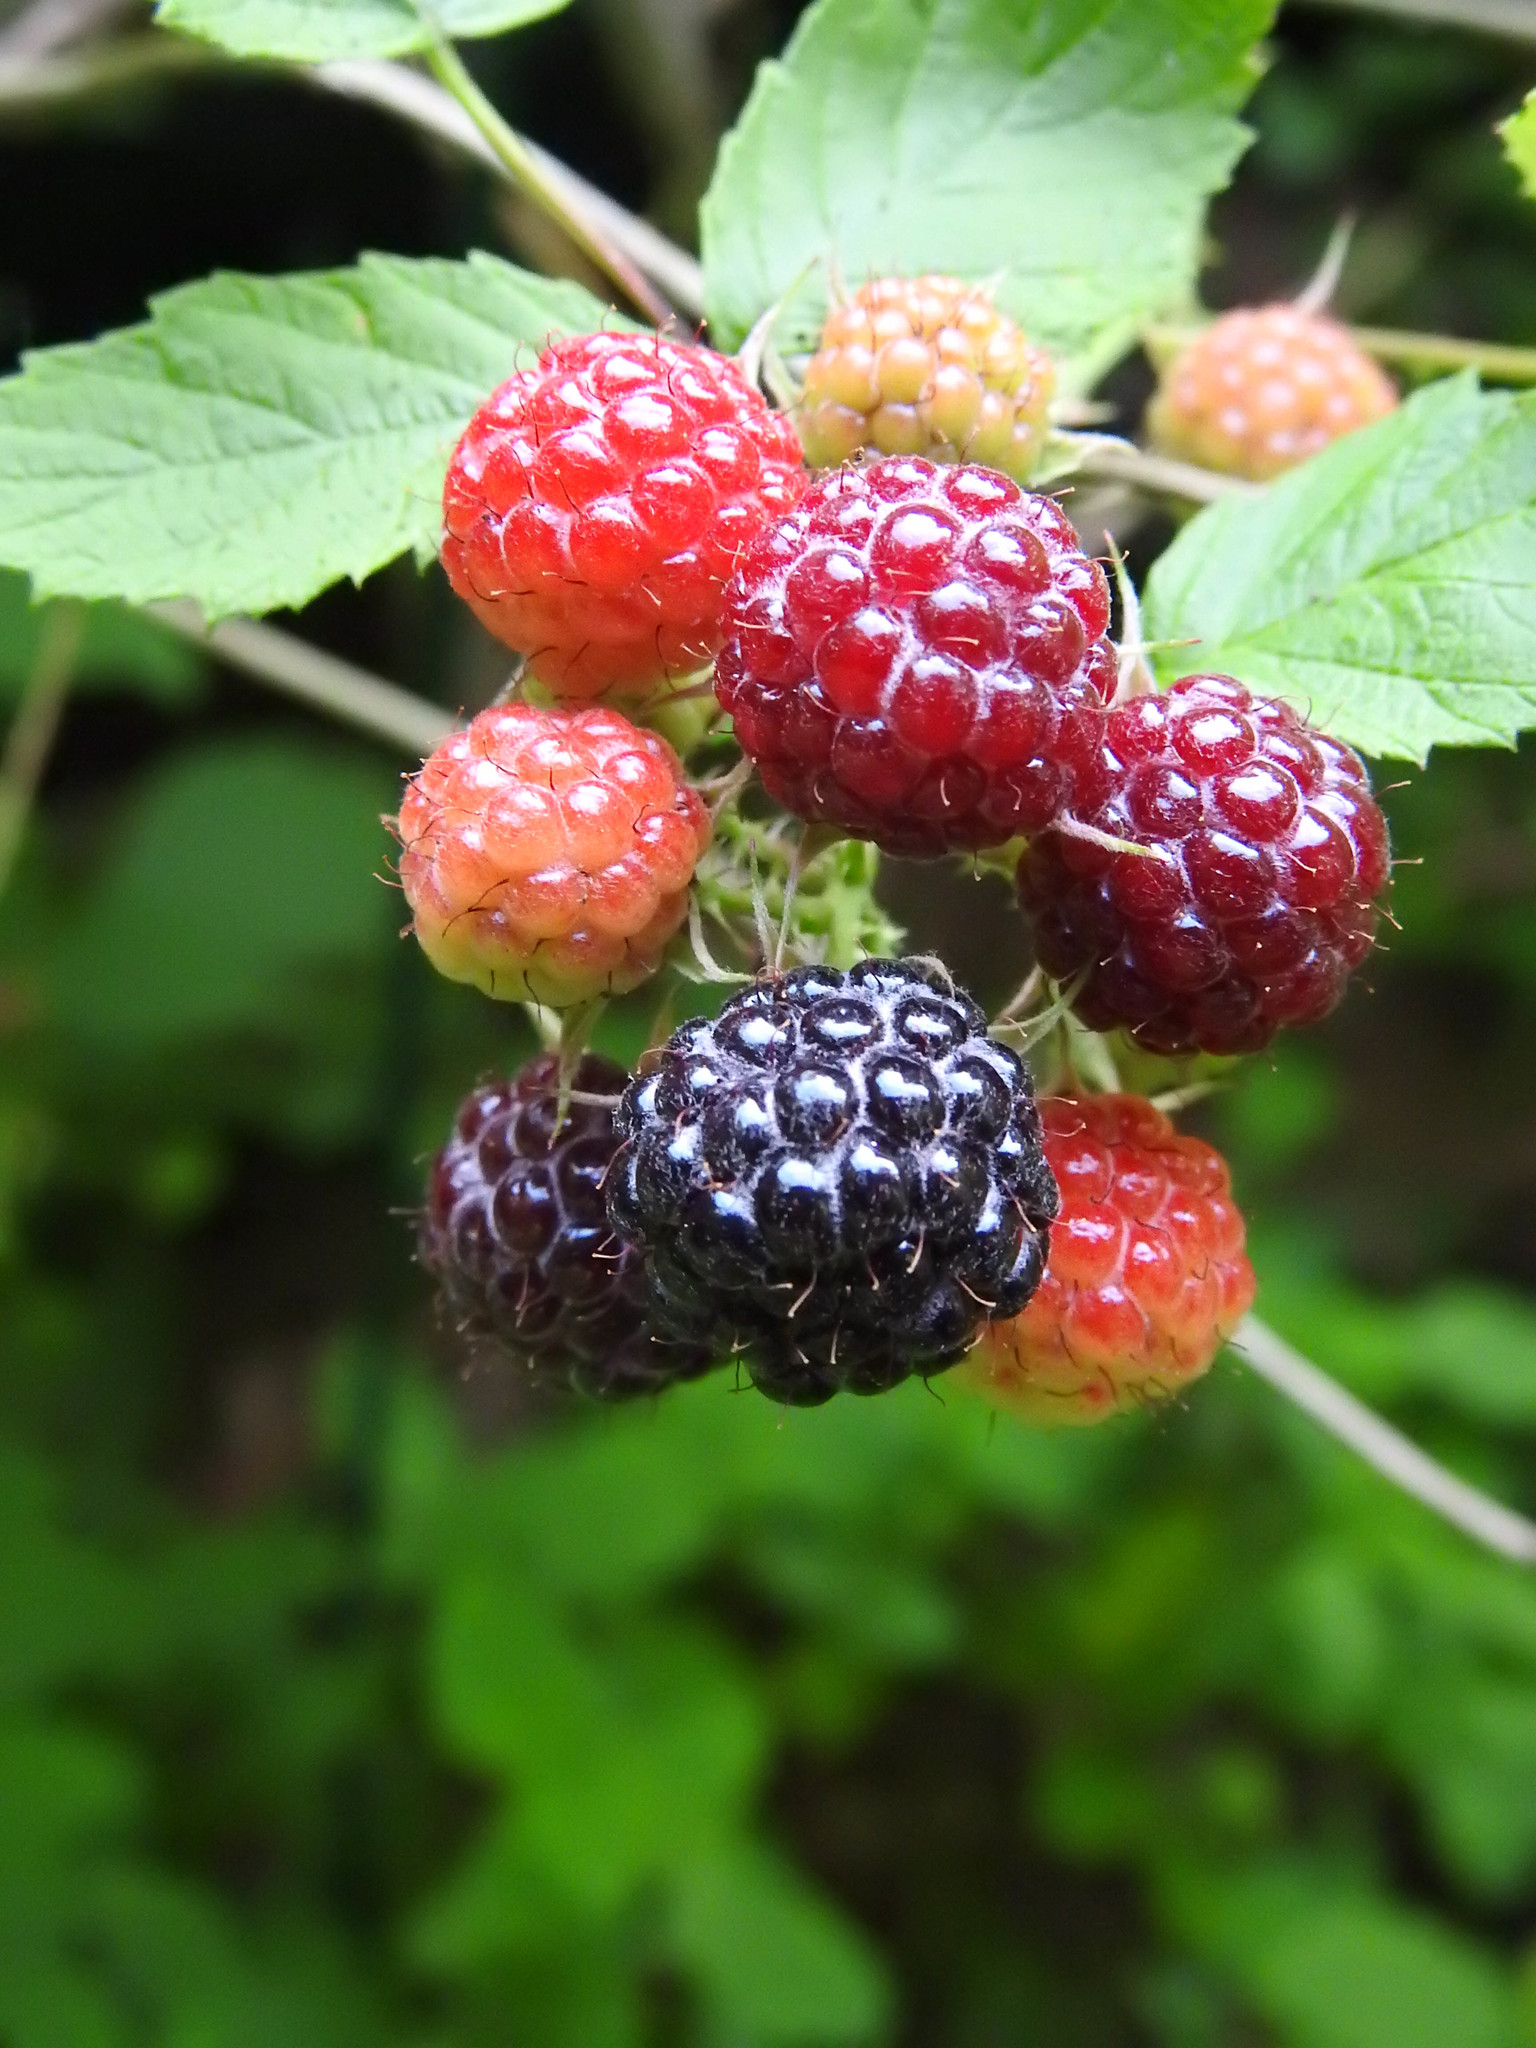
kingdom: Plantae
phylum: Tracheophyta
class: Magnoliopsida
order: Rosales
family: Rosaceae
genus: Rubus
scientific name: Rubus occidentalis
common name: Black raspberry
